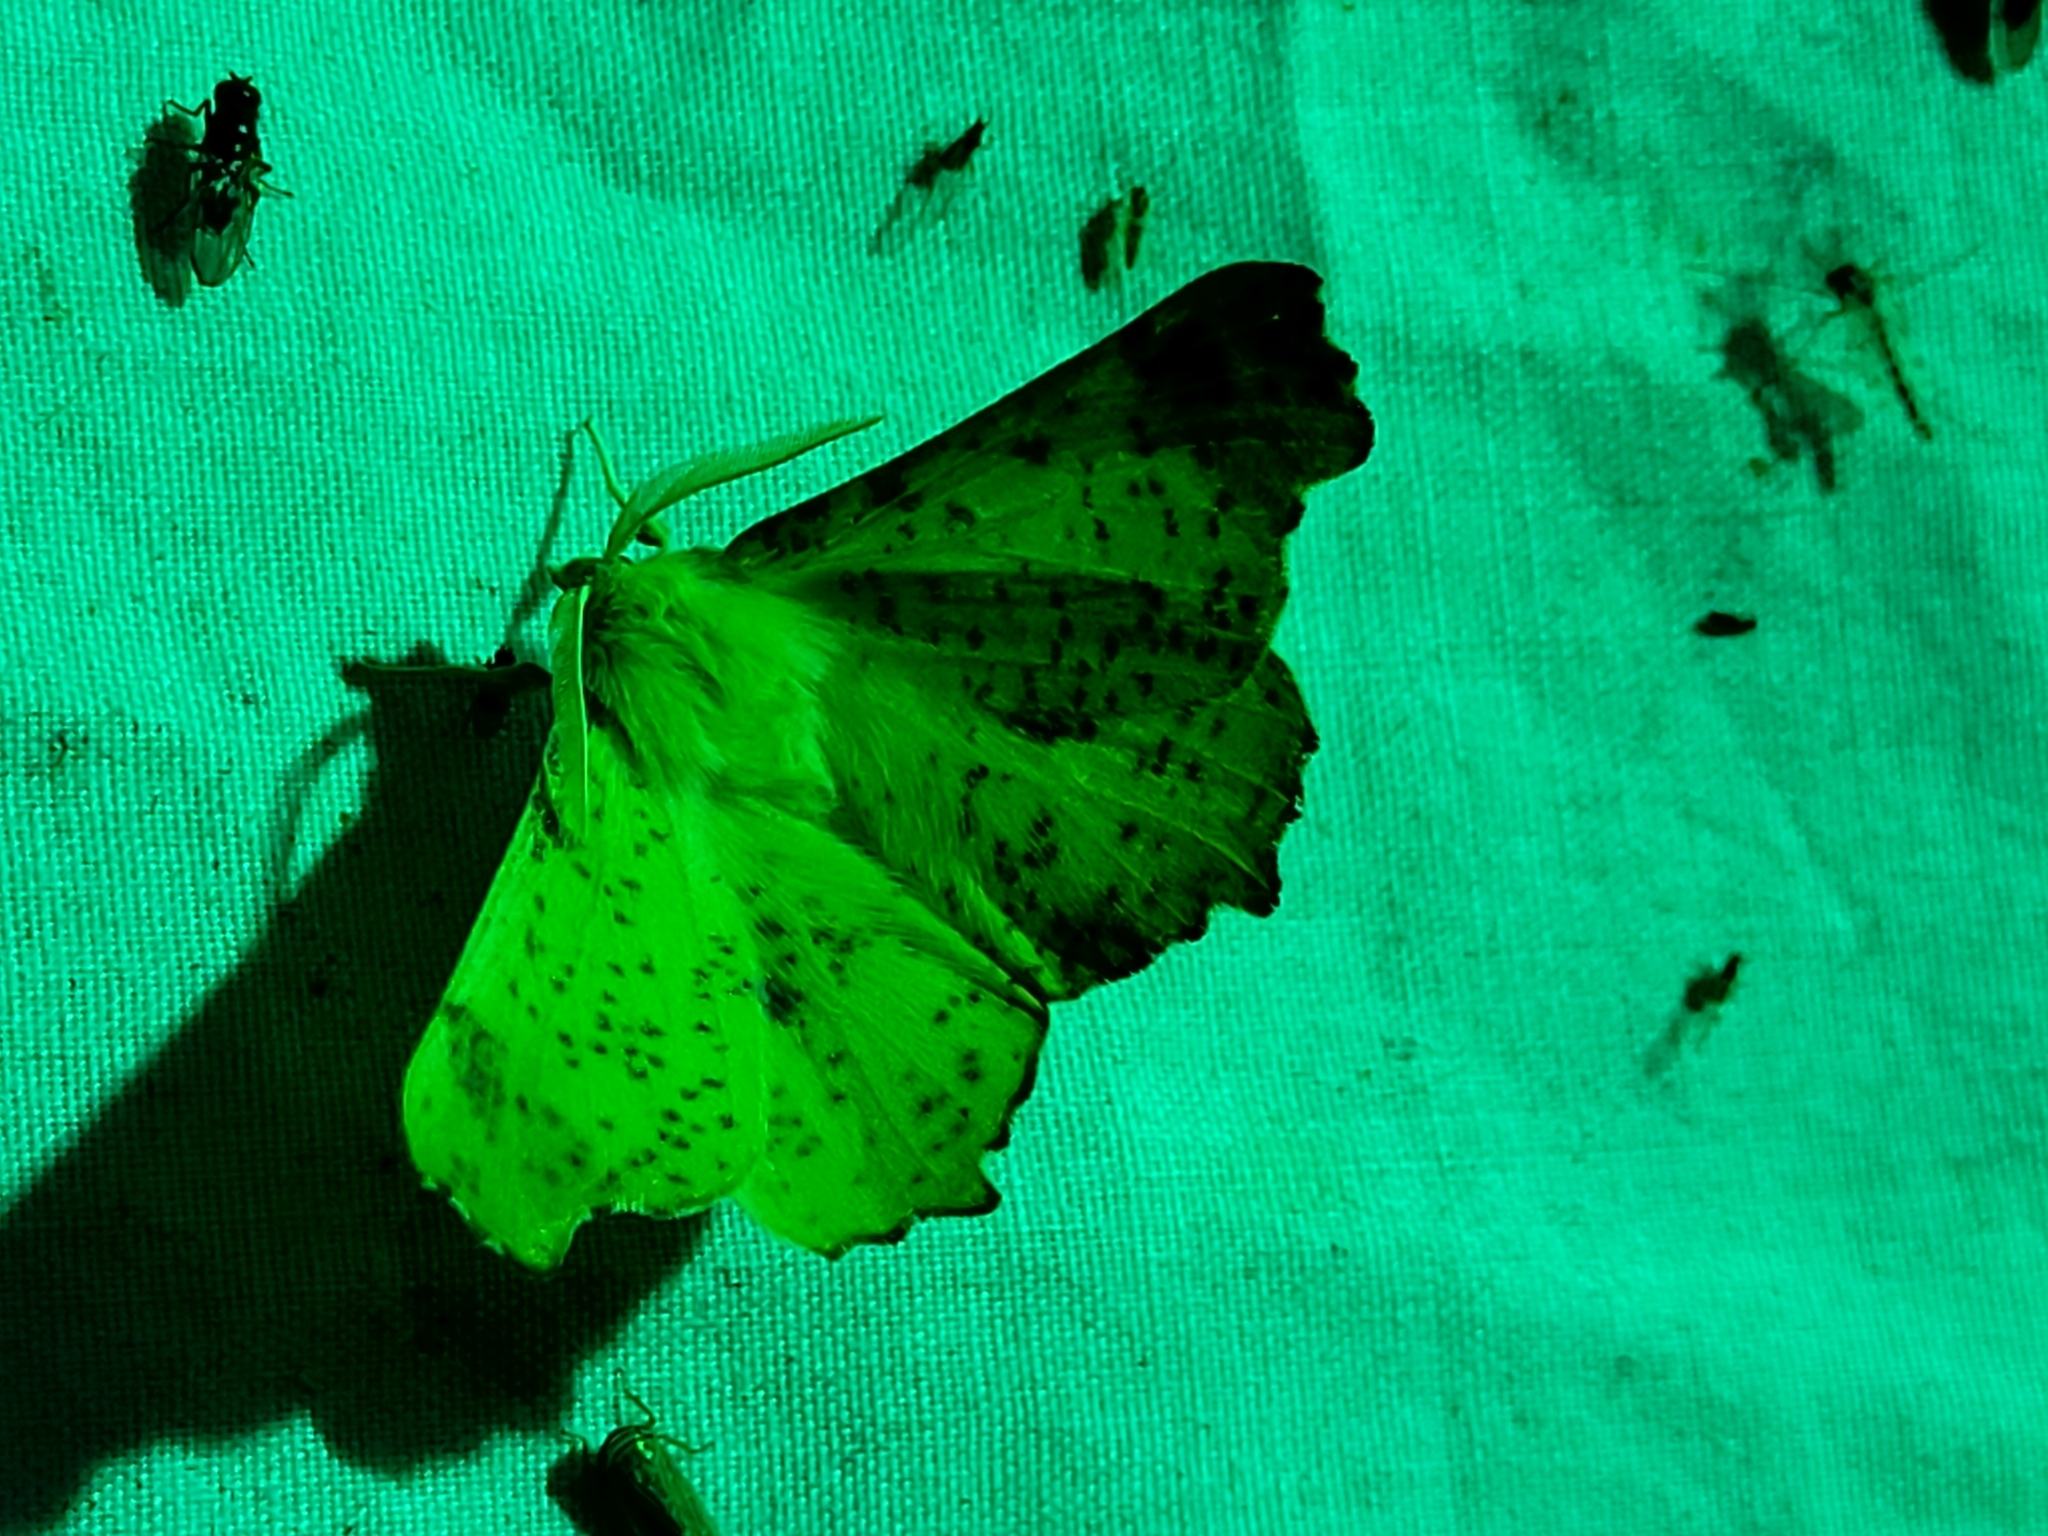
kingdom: Animalia
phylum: Arthropoda
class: Insecta
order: Lepidoptera
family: Geometridae
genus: Ennomos
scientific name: Ennomos magnaria
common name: Maple spanworm
